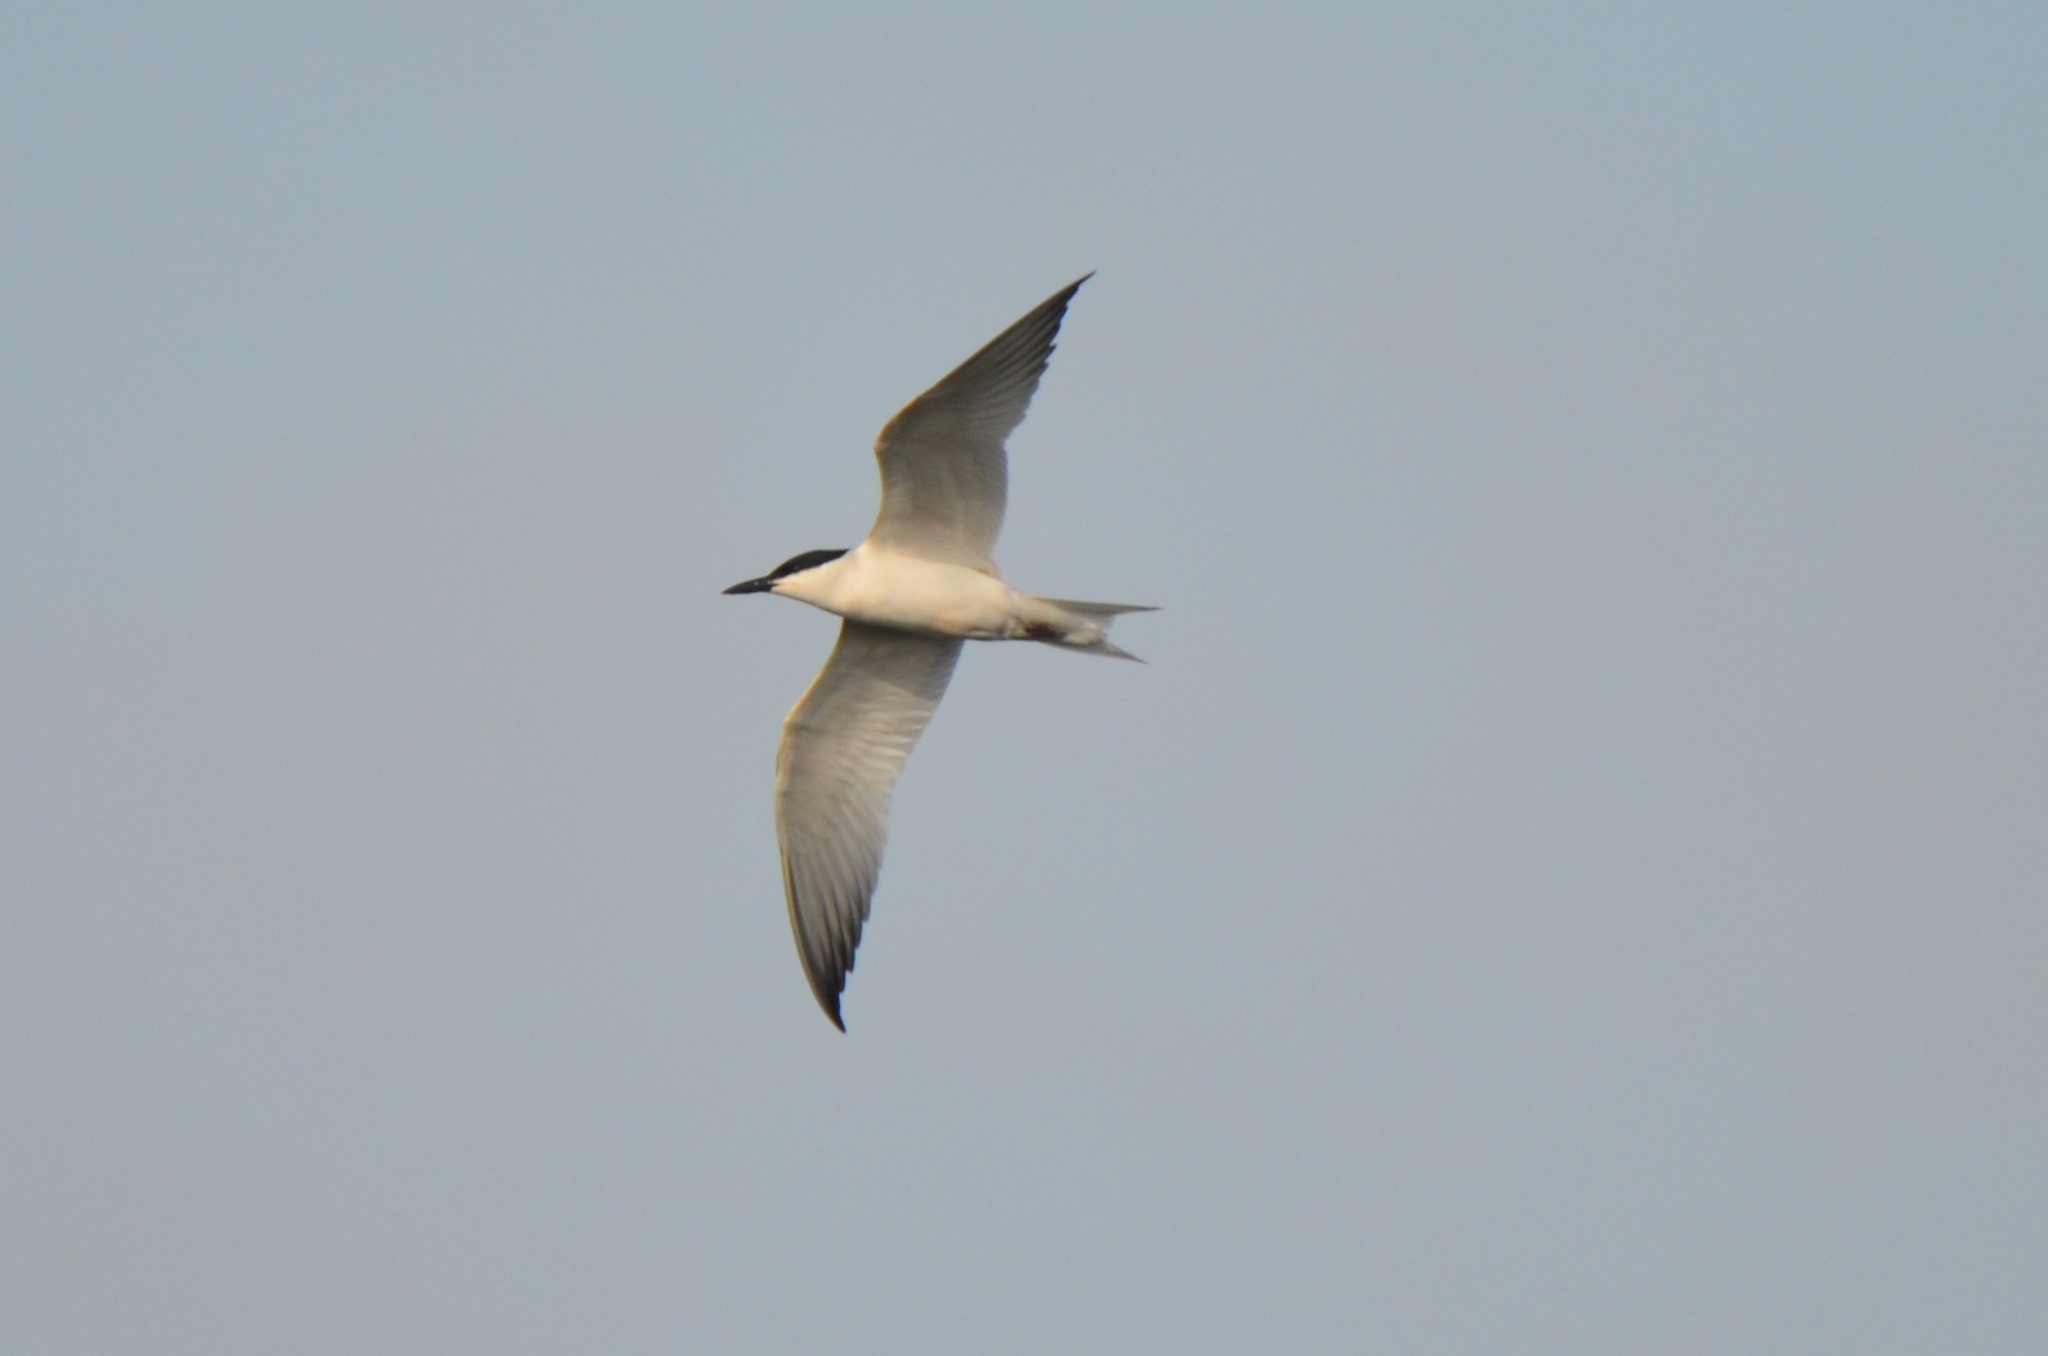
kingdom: Animalia
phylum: Chordata
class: Aves
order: Charadriiformes
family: Laridae
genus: Gelochelidon
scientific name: Gelochelidon nilotica
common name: Gull-billed tern
